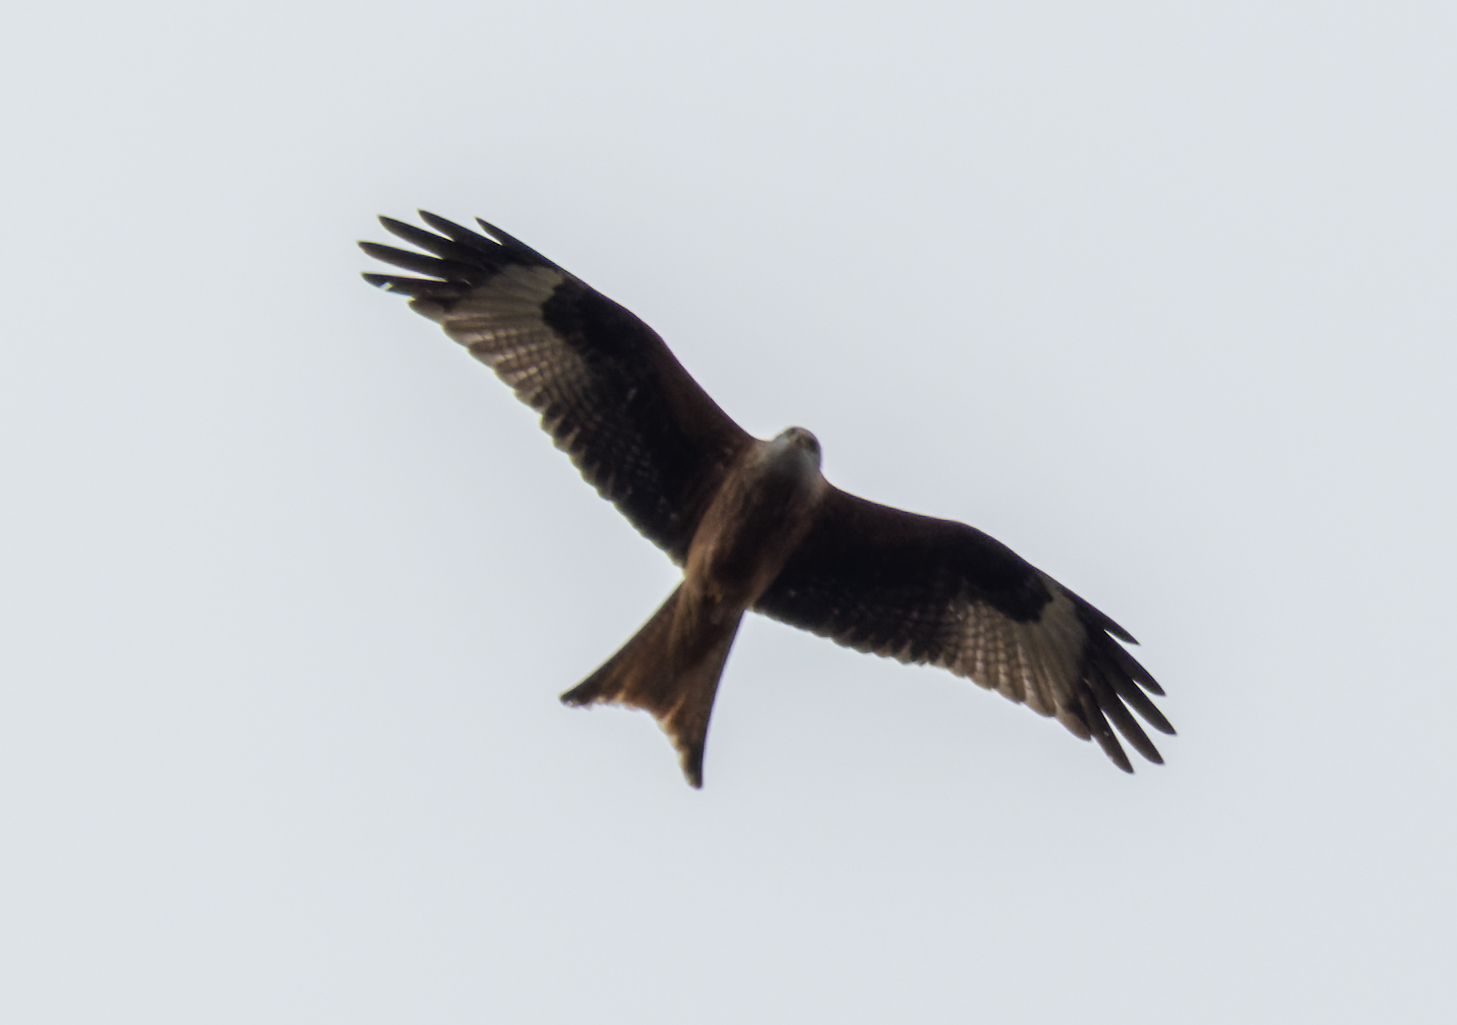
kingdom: Animalia
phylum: Chordata
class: Aves
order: Accipitriformes
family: Accipitridae
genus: Milvus
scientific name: Milvus milvus
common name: Red kite
